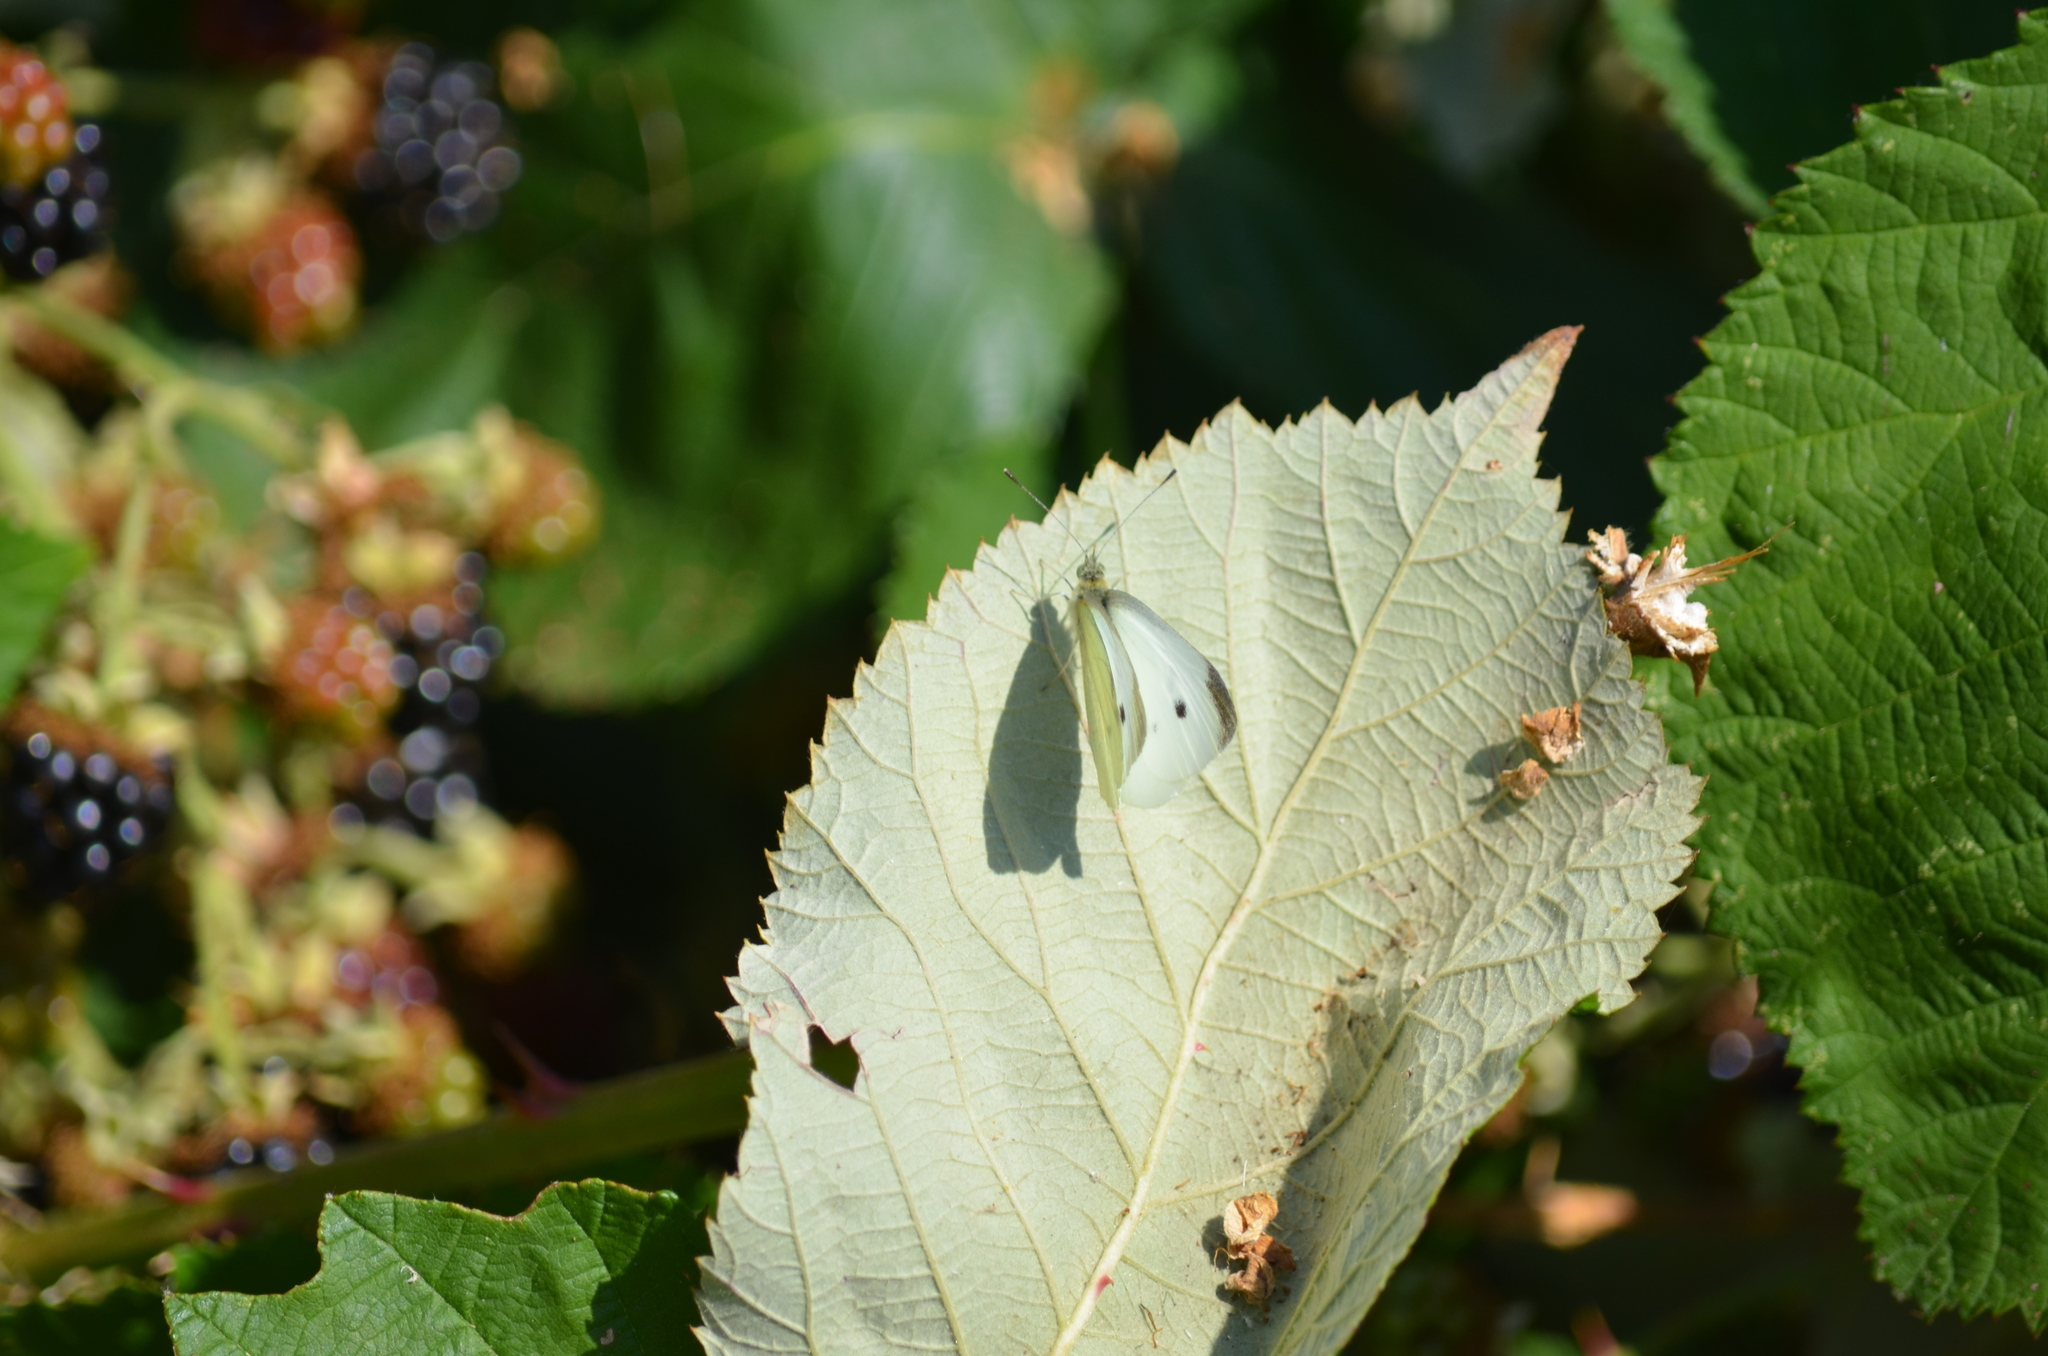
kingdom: Animalia
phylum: Arthropoda
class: Insecta
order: Lepidoptera
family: Pieridae
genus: Pieris
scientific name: Pieris rapae
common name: Small white
